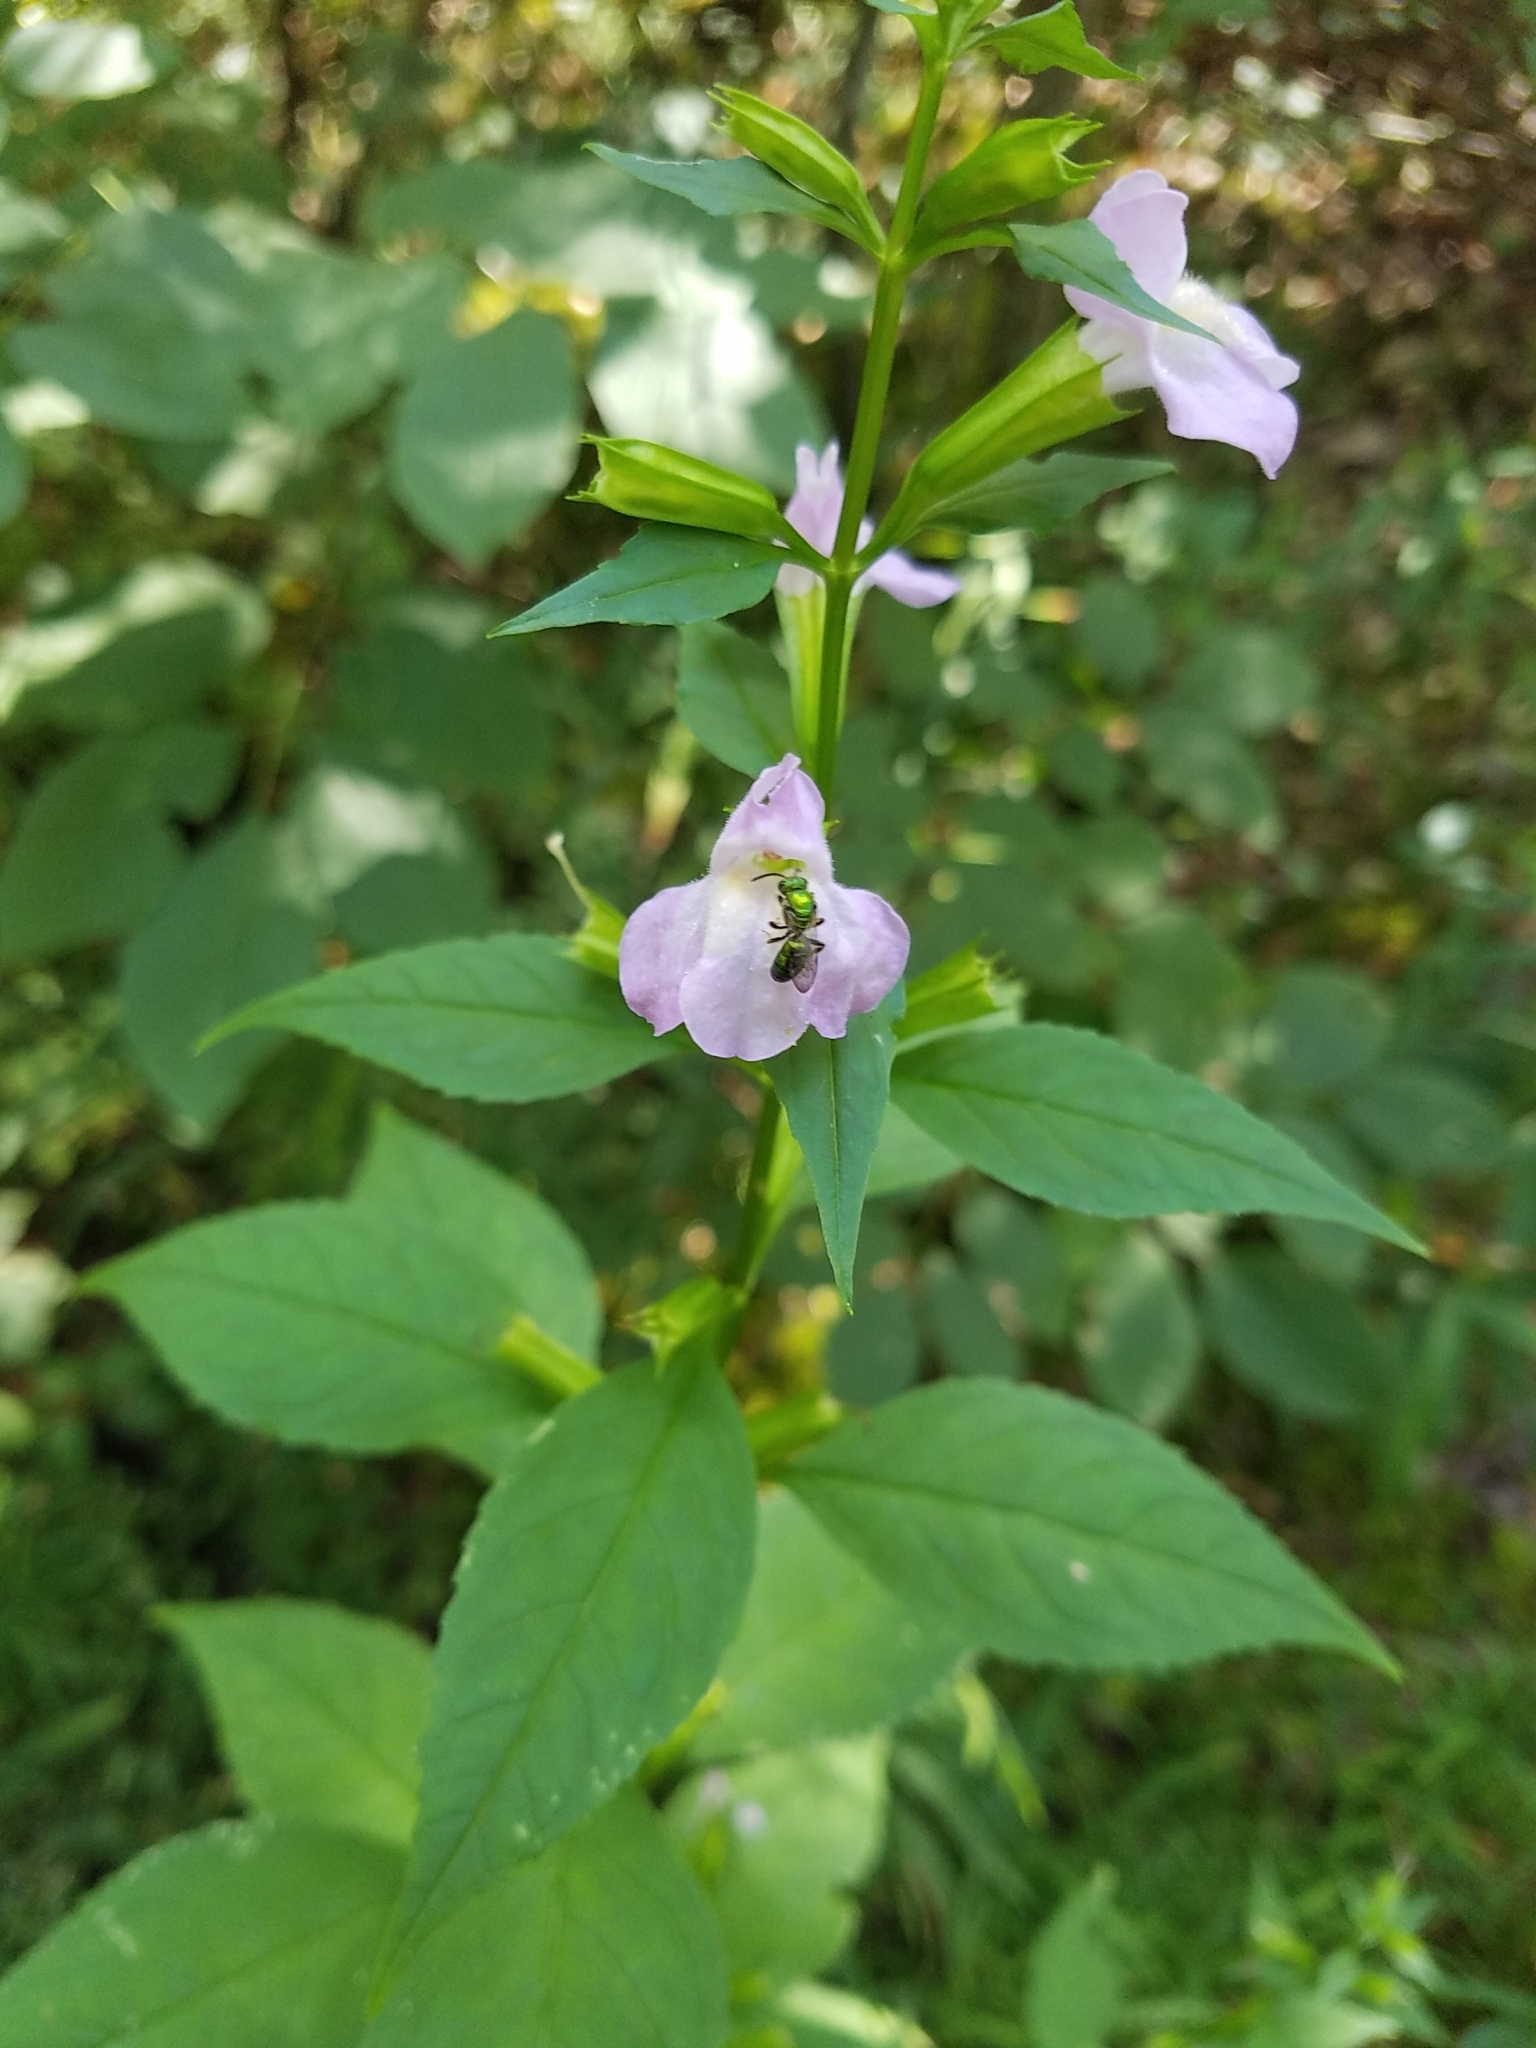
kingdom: Plantae
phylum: Tracheophyta
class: Magnoliopsida
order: Lamiales
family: Phrymaceae
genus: Mimulus
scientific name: Mimulus alatus
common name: Sharp-wing monkey-flower
